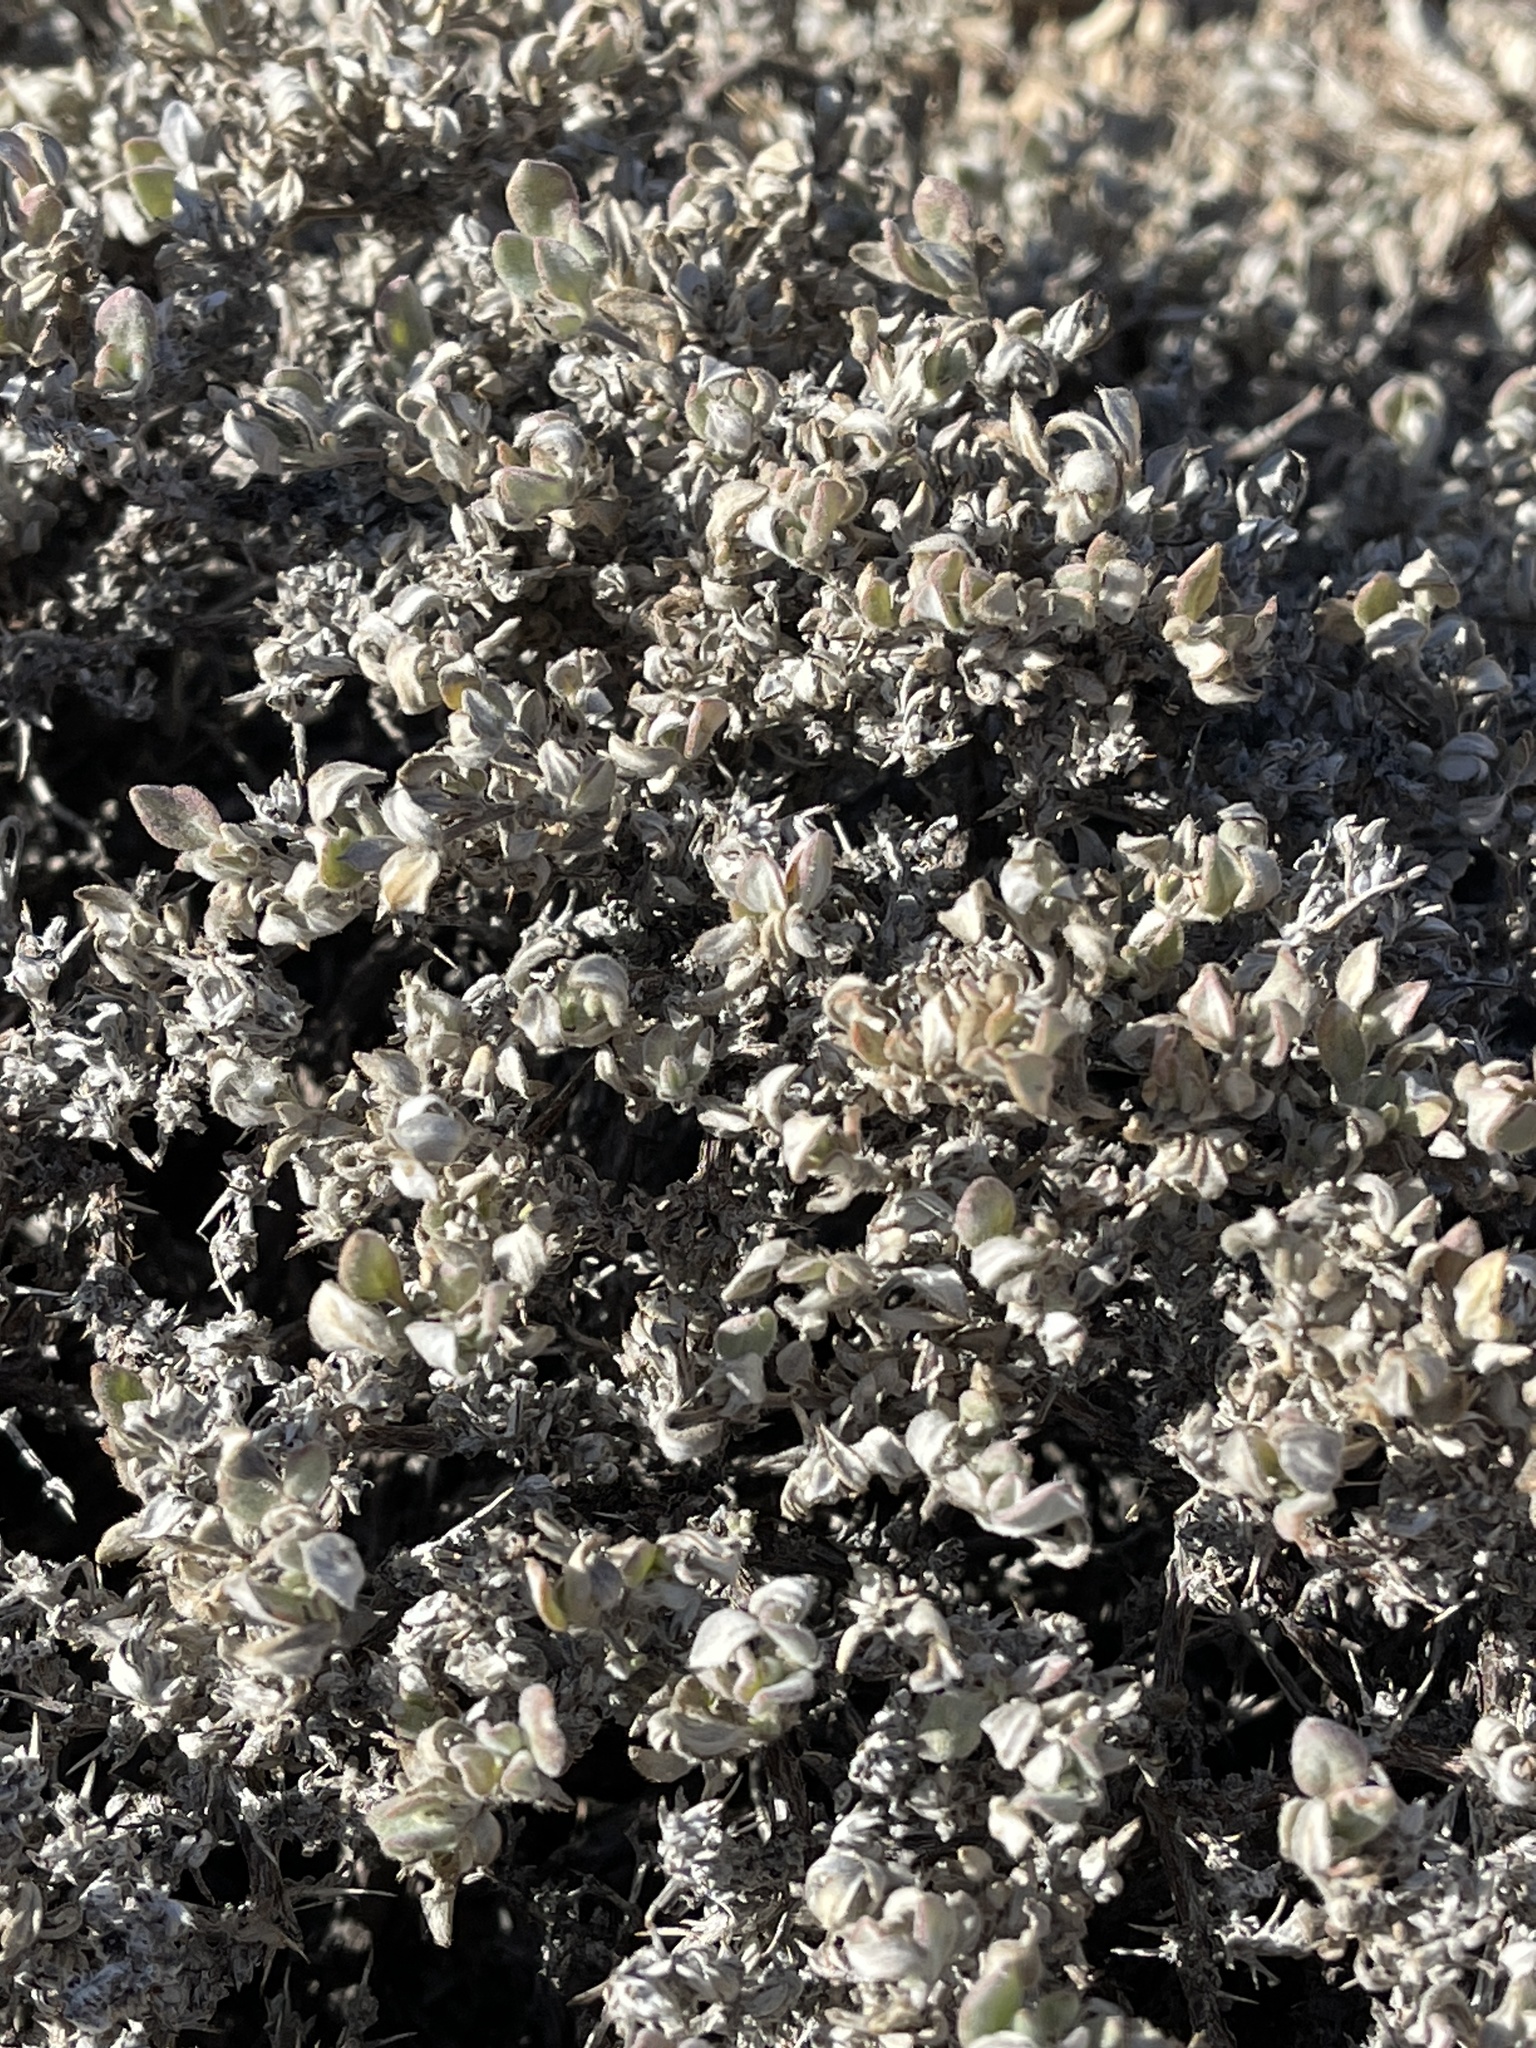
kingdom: Plantae
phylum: Tracheophyta
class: Magnoliopsida
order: Boraginales
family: Ehretiaceae
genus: Tiquilia
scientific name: Tiquilia canescens
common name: Hairy tiquilia
